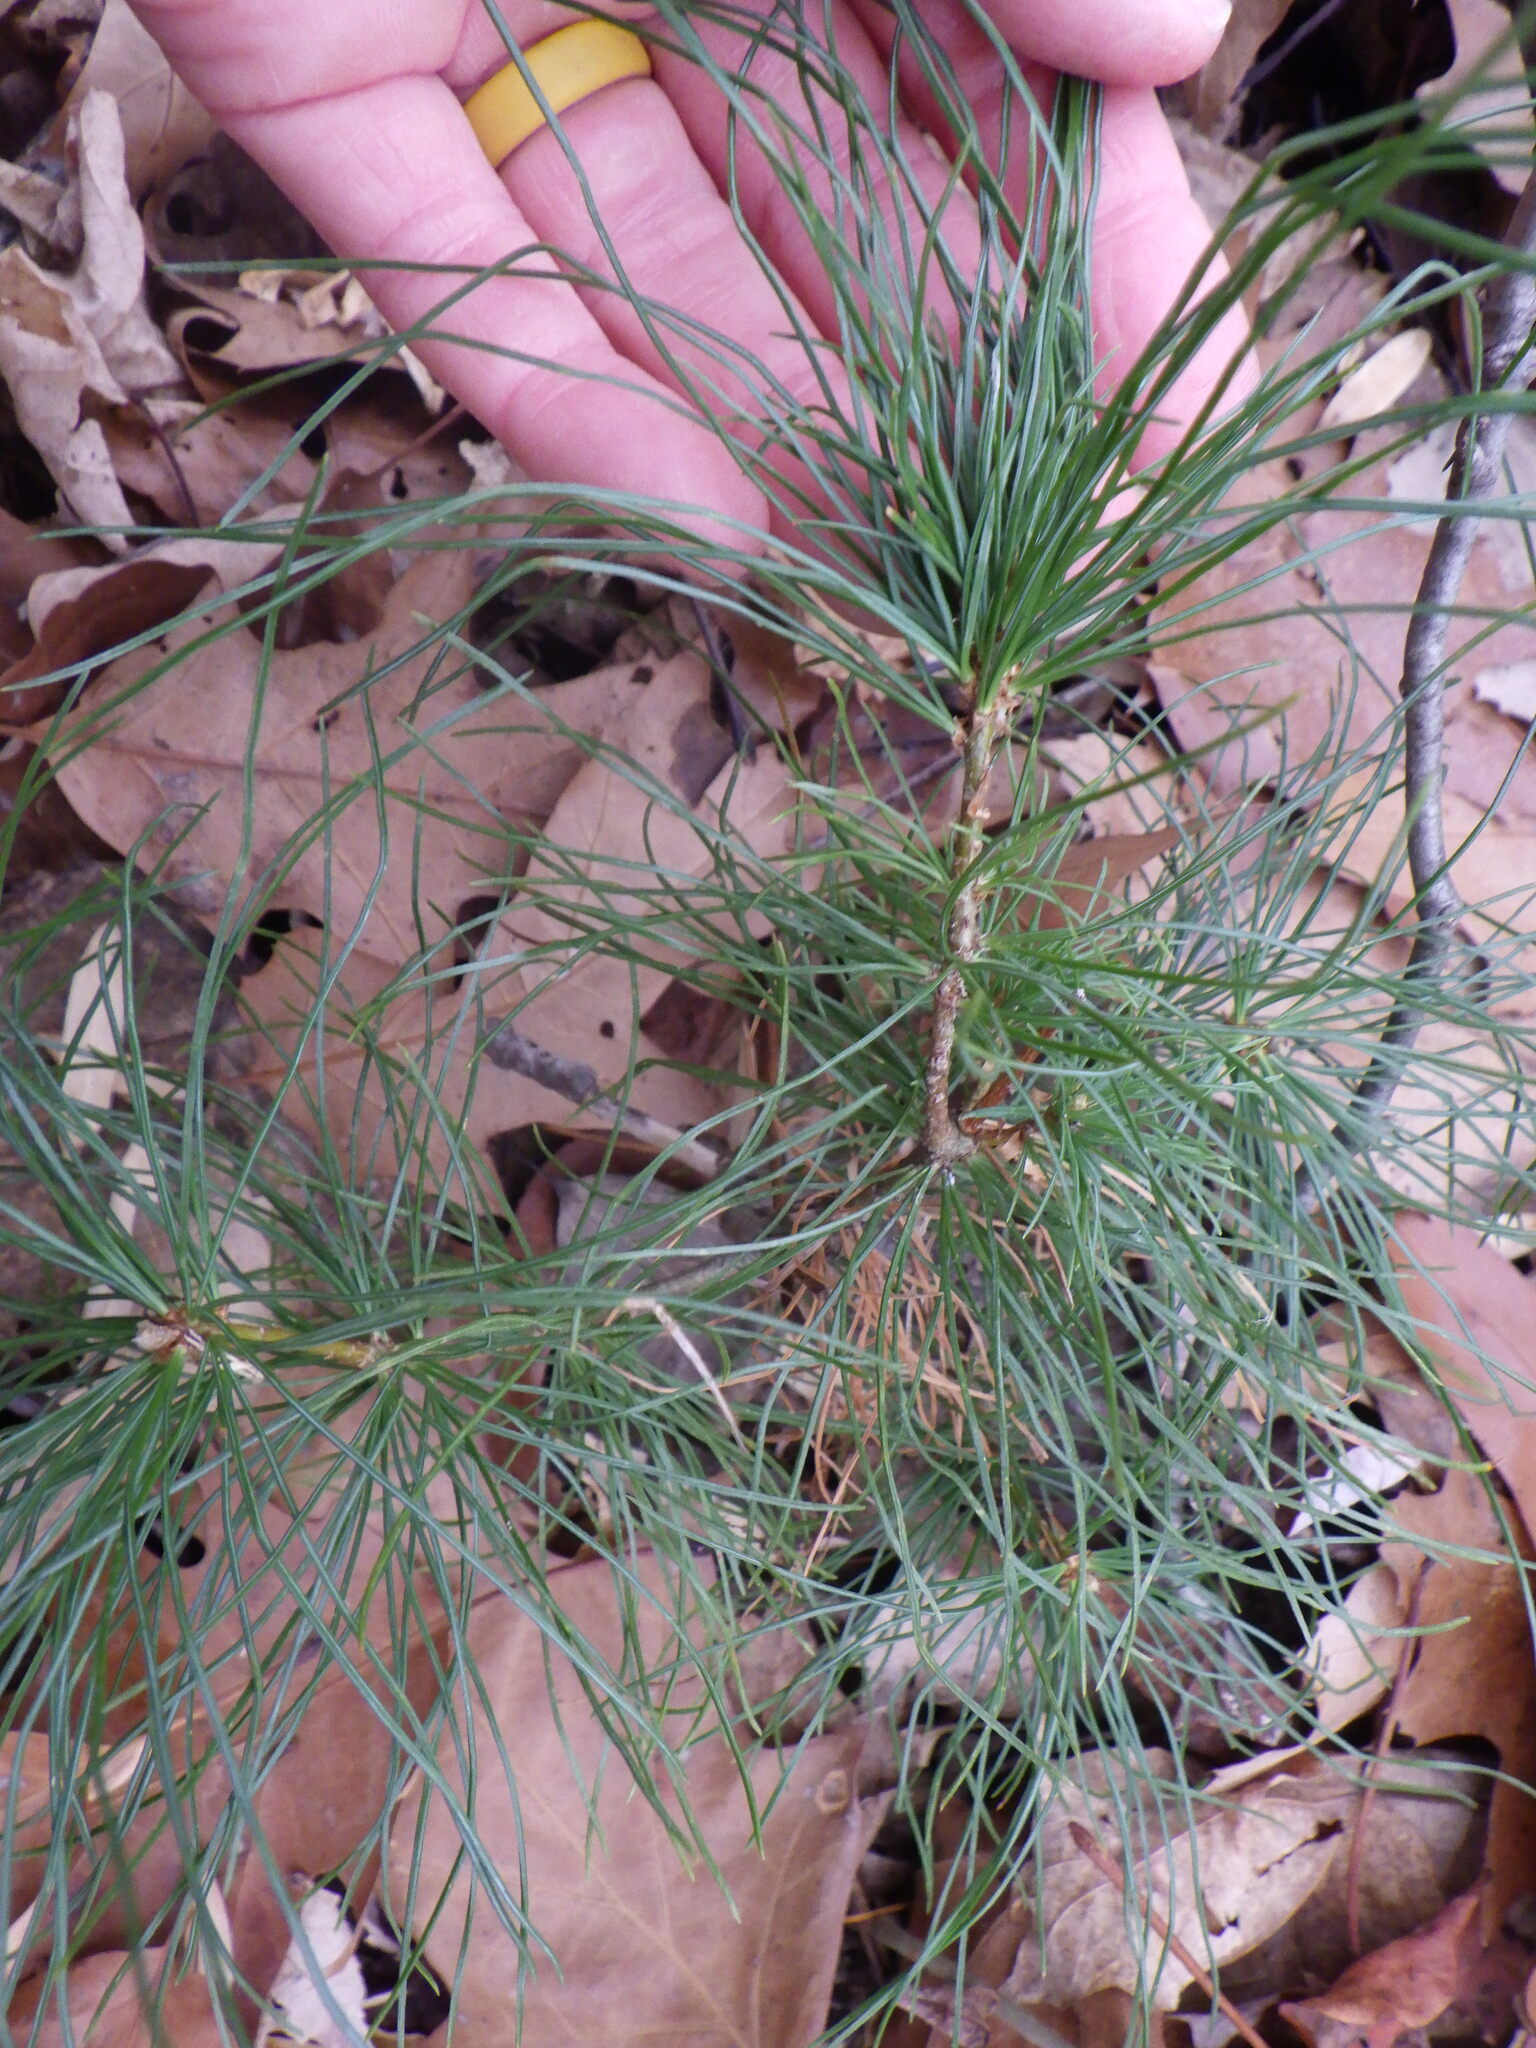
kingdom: Plantae
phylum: Tracheophyta
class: Pinopsida
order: Pinales
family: Pinaceae
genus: Pinus
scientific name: Pinus strobus
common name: Weymouth pine
